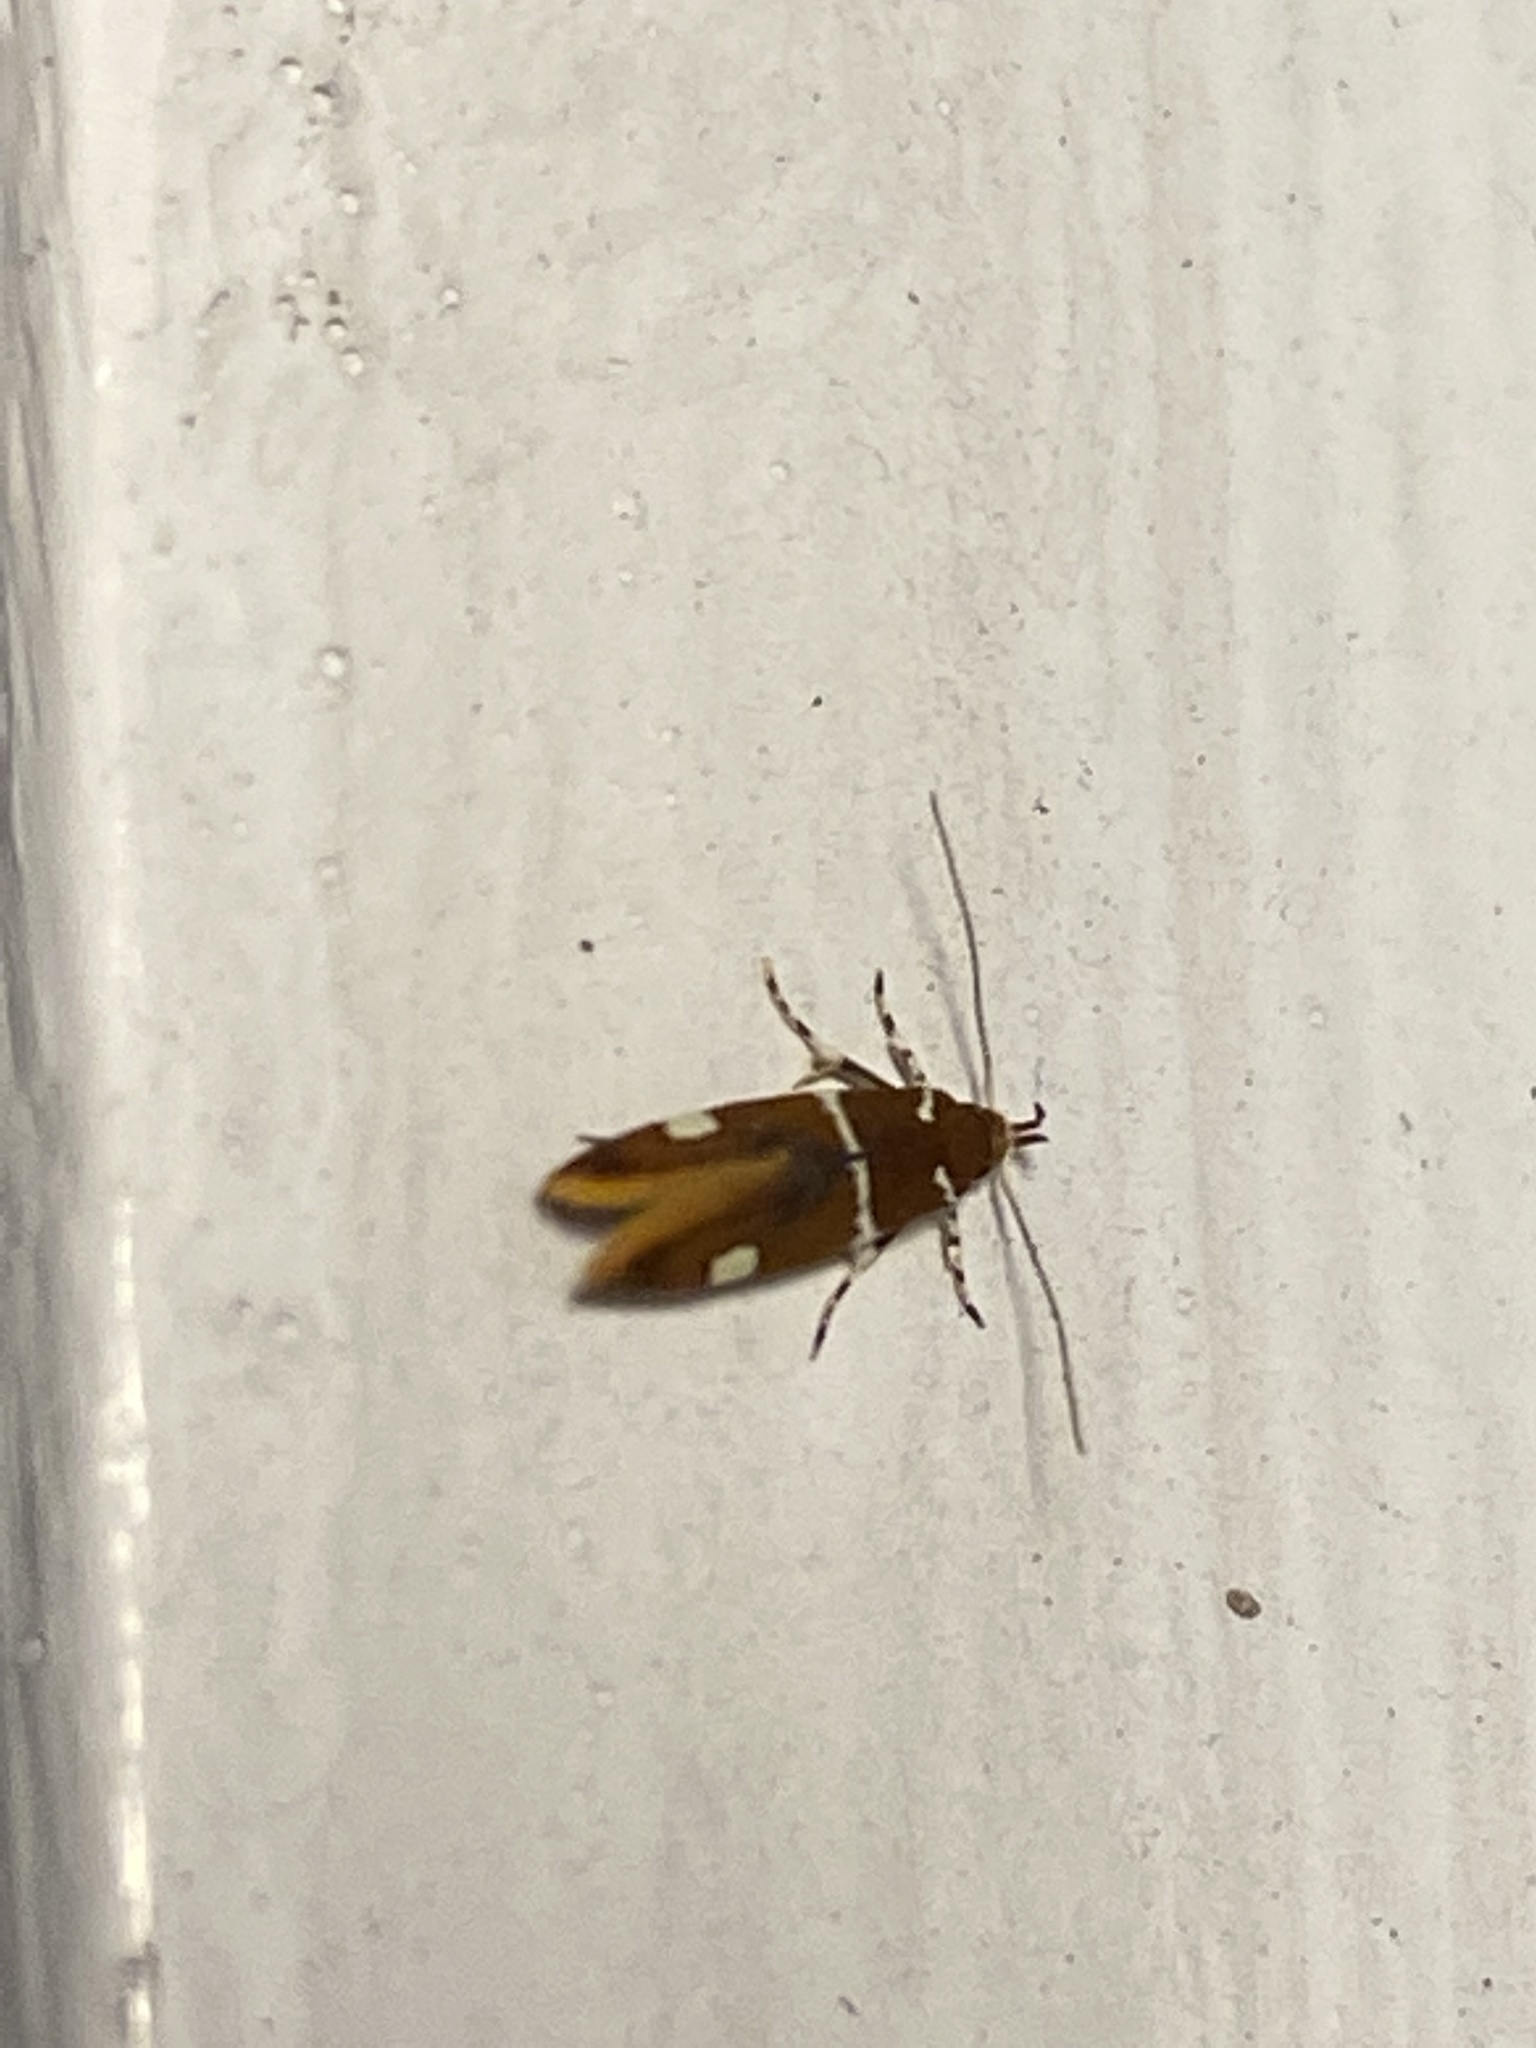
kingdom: Animalia
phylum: Arthropoda
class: Insecta
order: Lepidoptera
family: Oecophoridae
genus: Promalactis
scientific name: Promalactis suzukiella
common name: Moth
